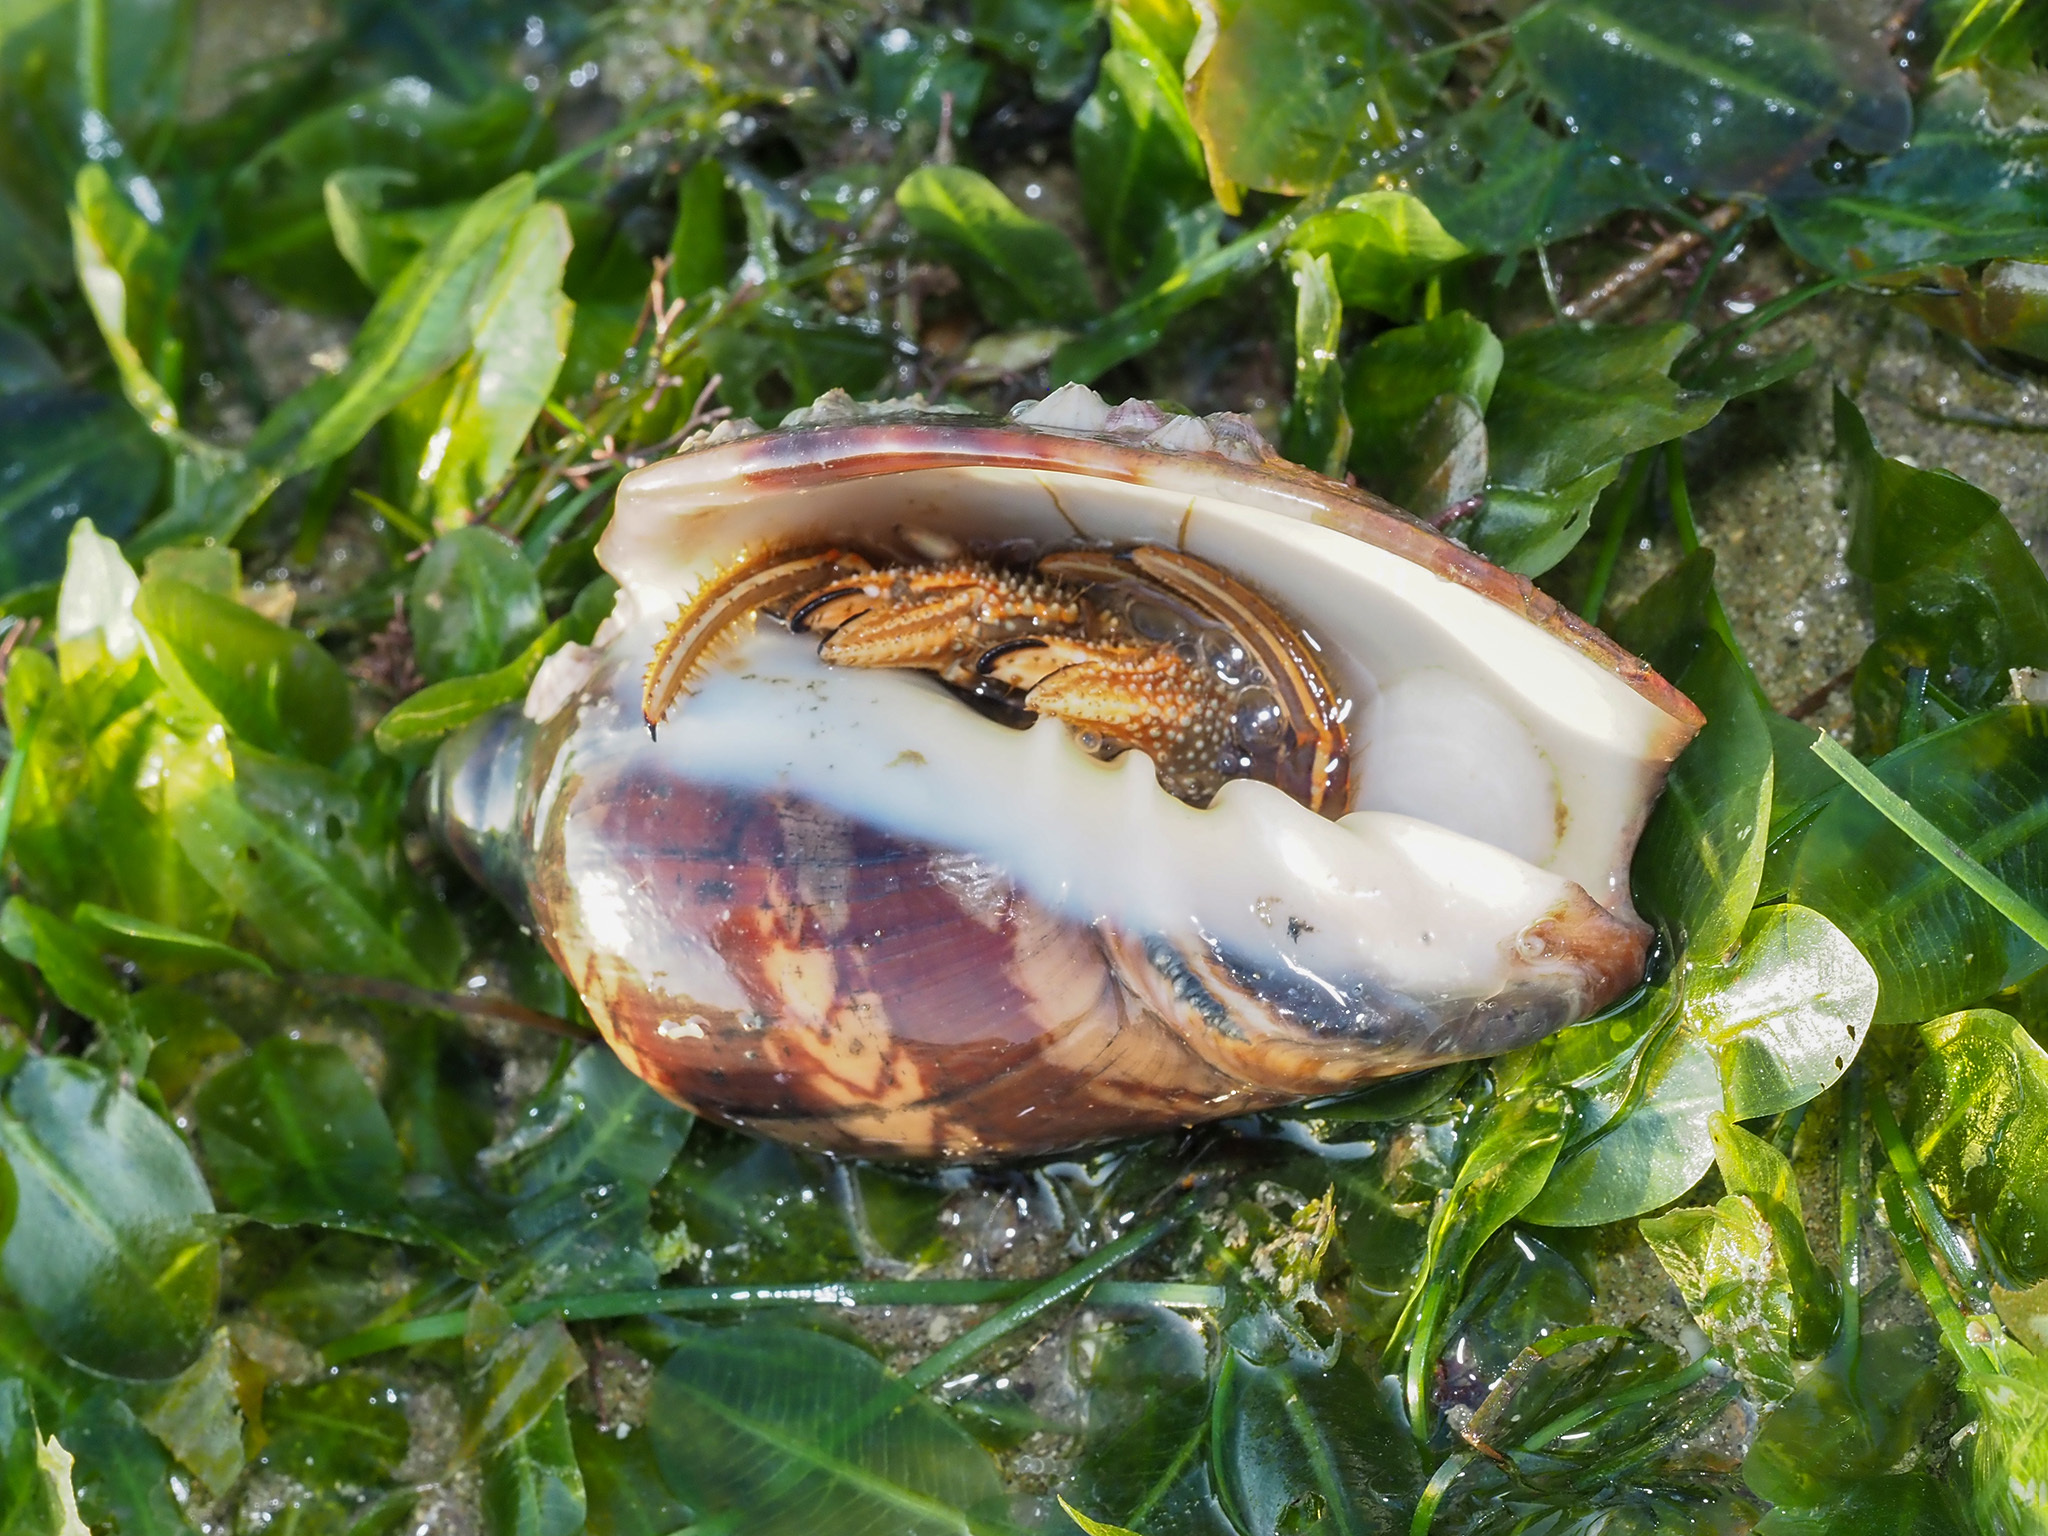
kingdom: Animalia
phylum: Arthropoda
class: Malacostraca
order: Decapoda
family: Diogenidae
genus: Clibanarius
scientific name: Clibanarius infraspinatus
